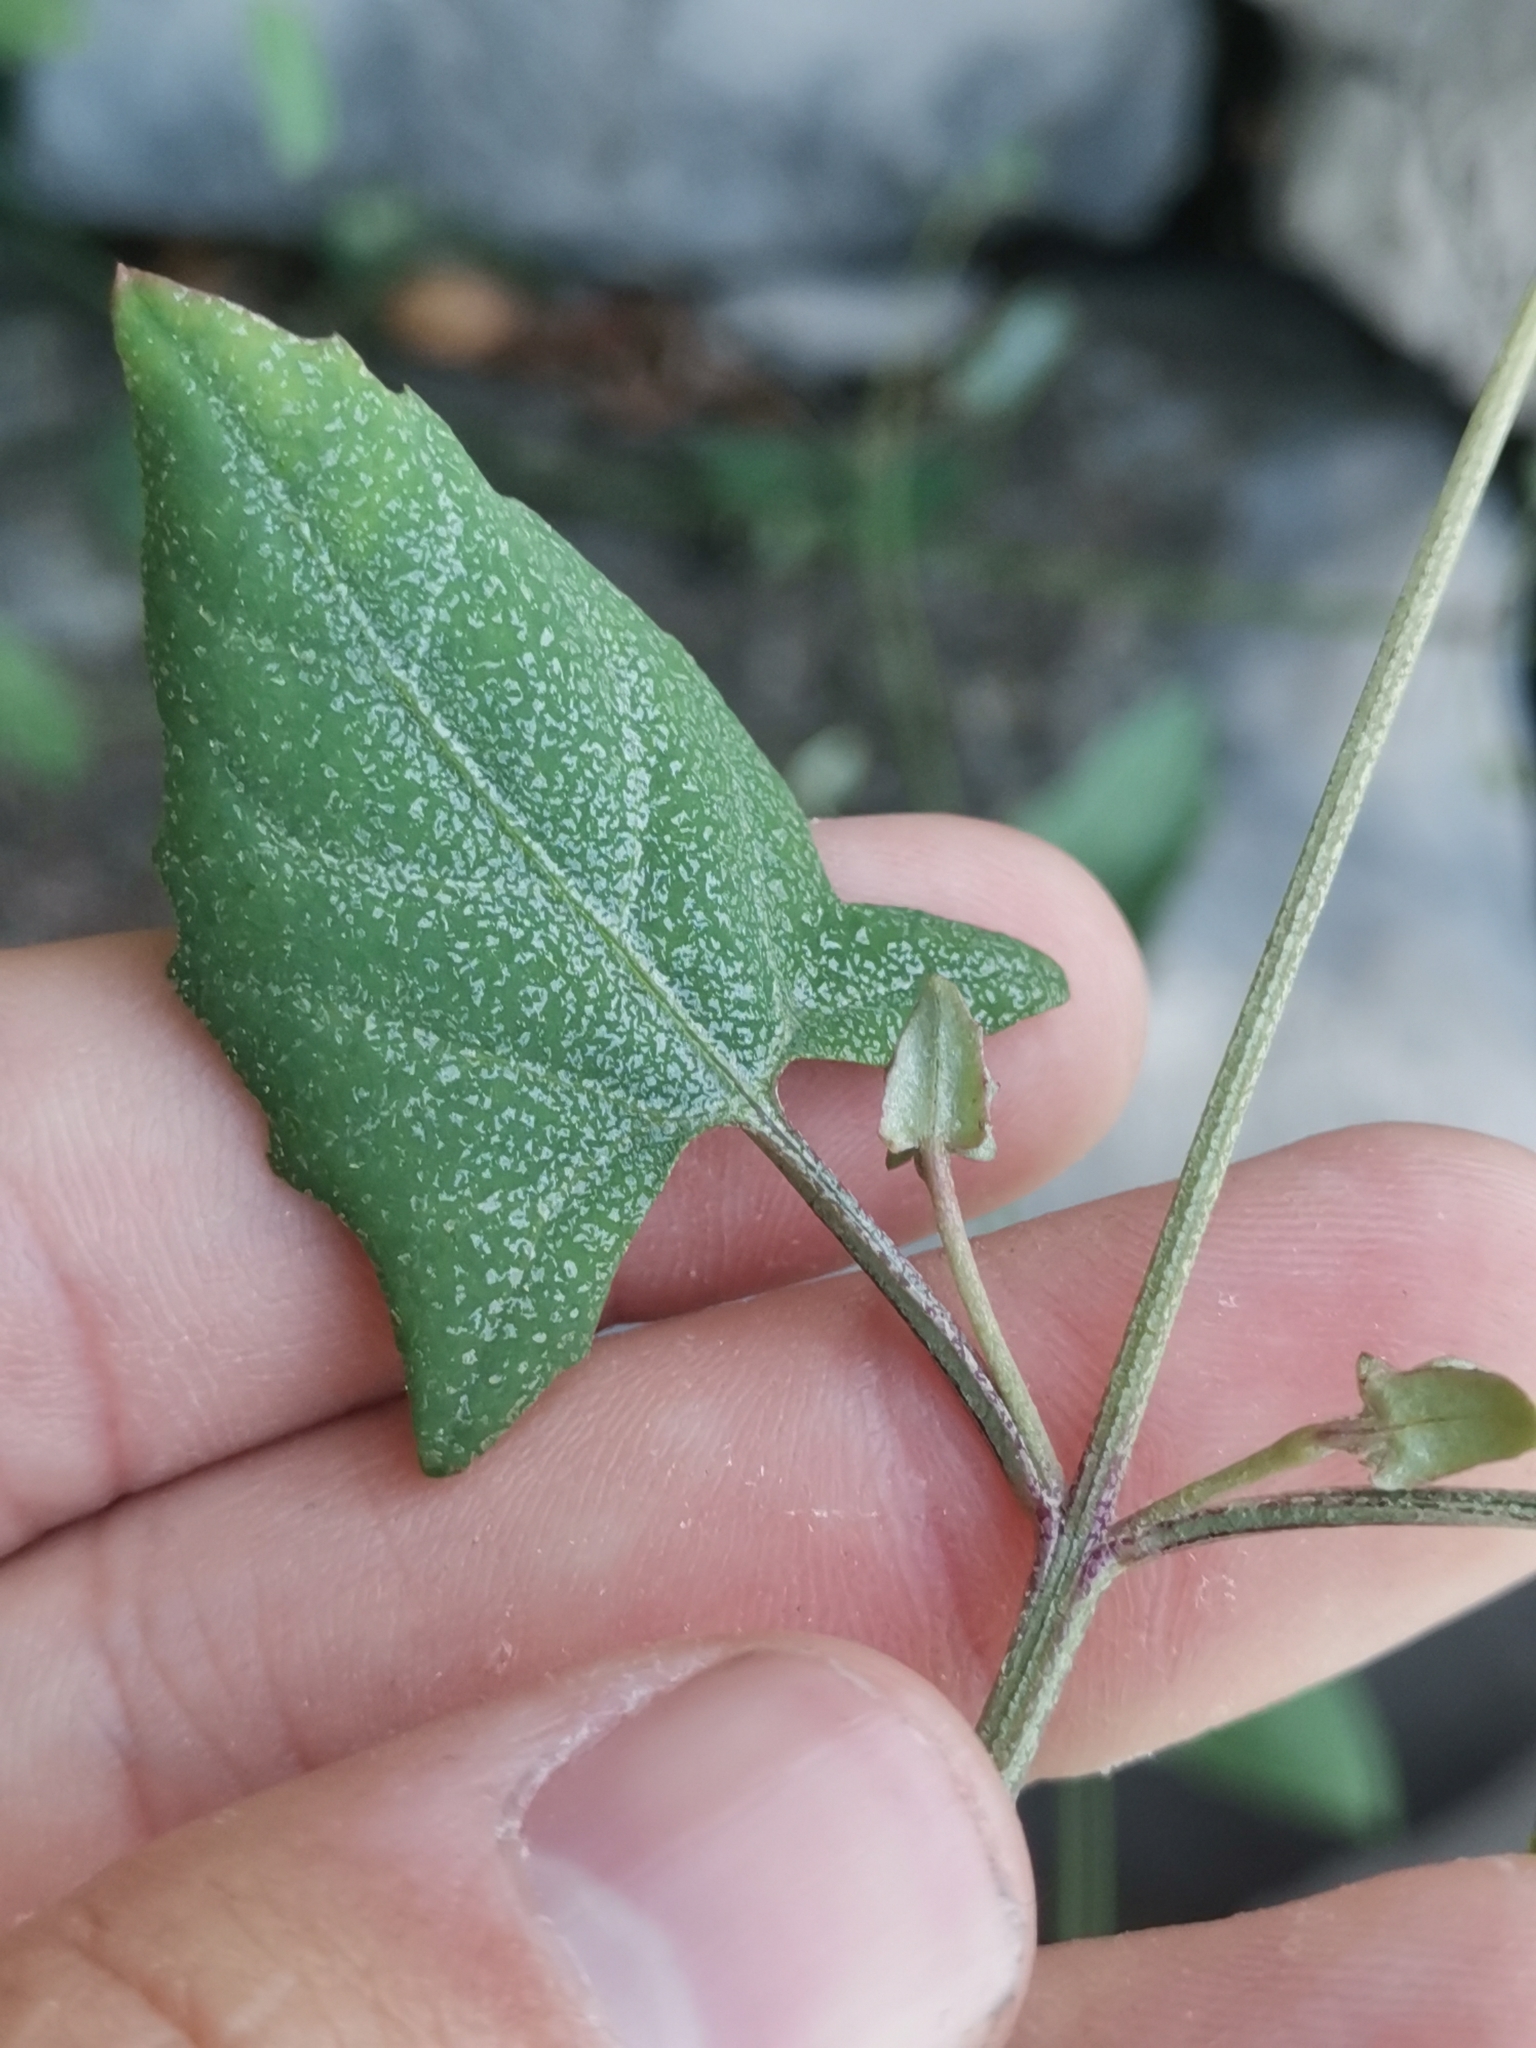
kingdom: Plantae
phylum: Tracheophyta
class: Magnoliopsida
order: Caryophyllales
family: Amaranthaceae
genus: Atriplex
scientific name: Atriplex prostrata
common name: Spear-leaved orache
